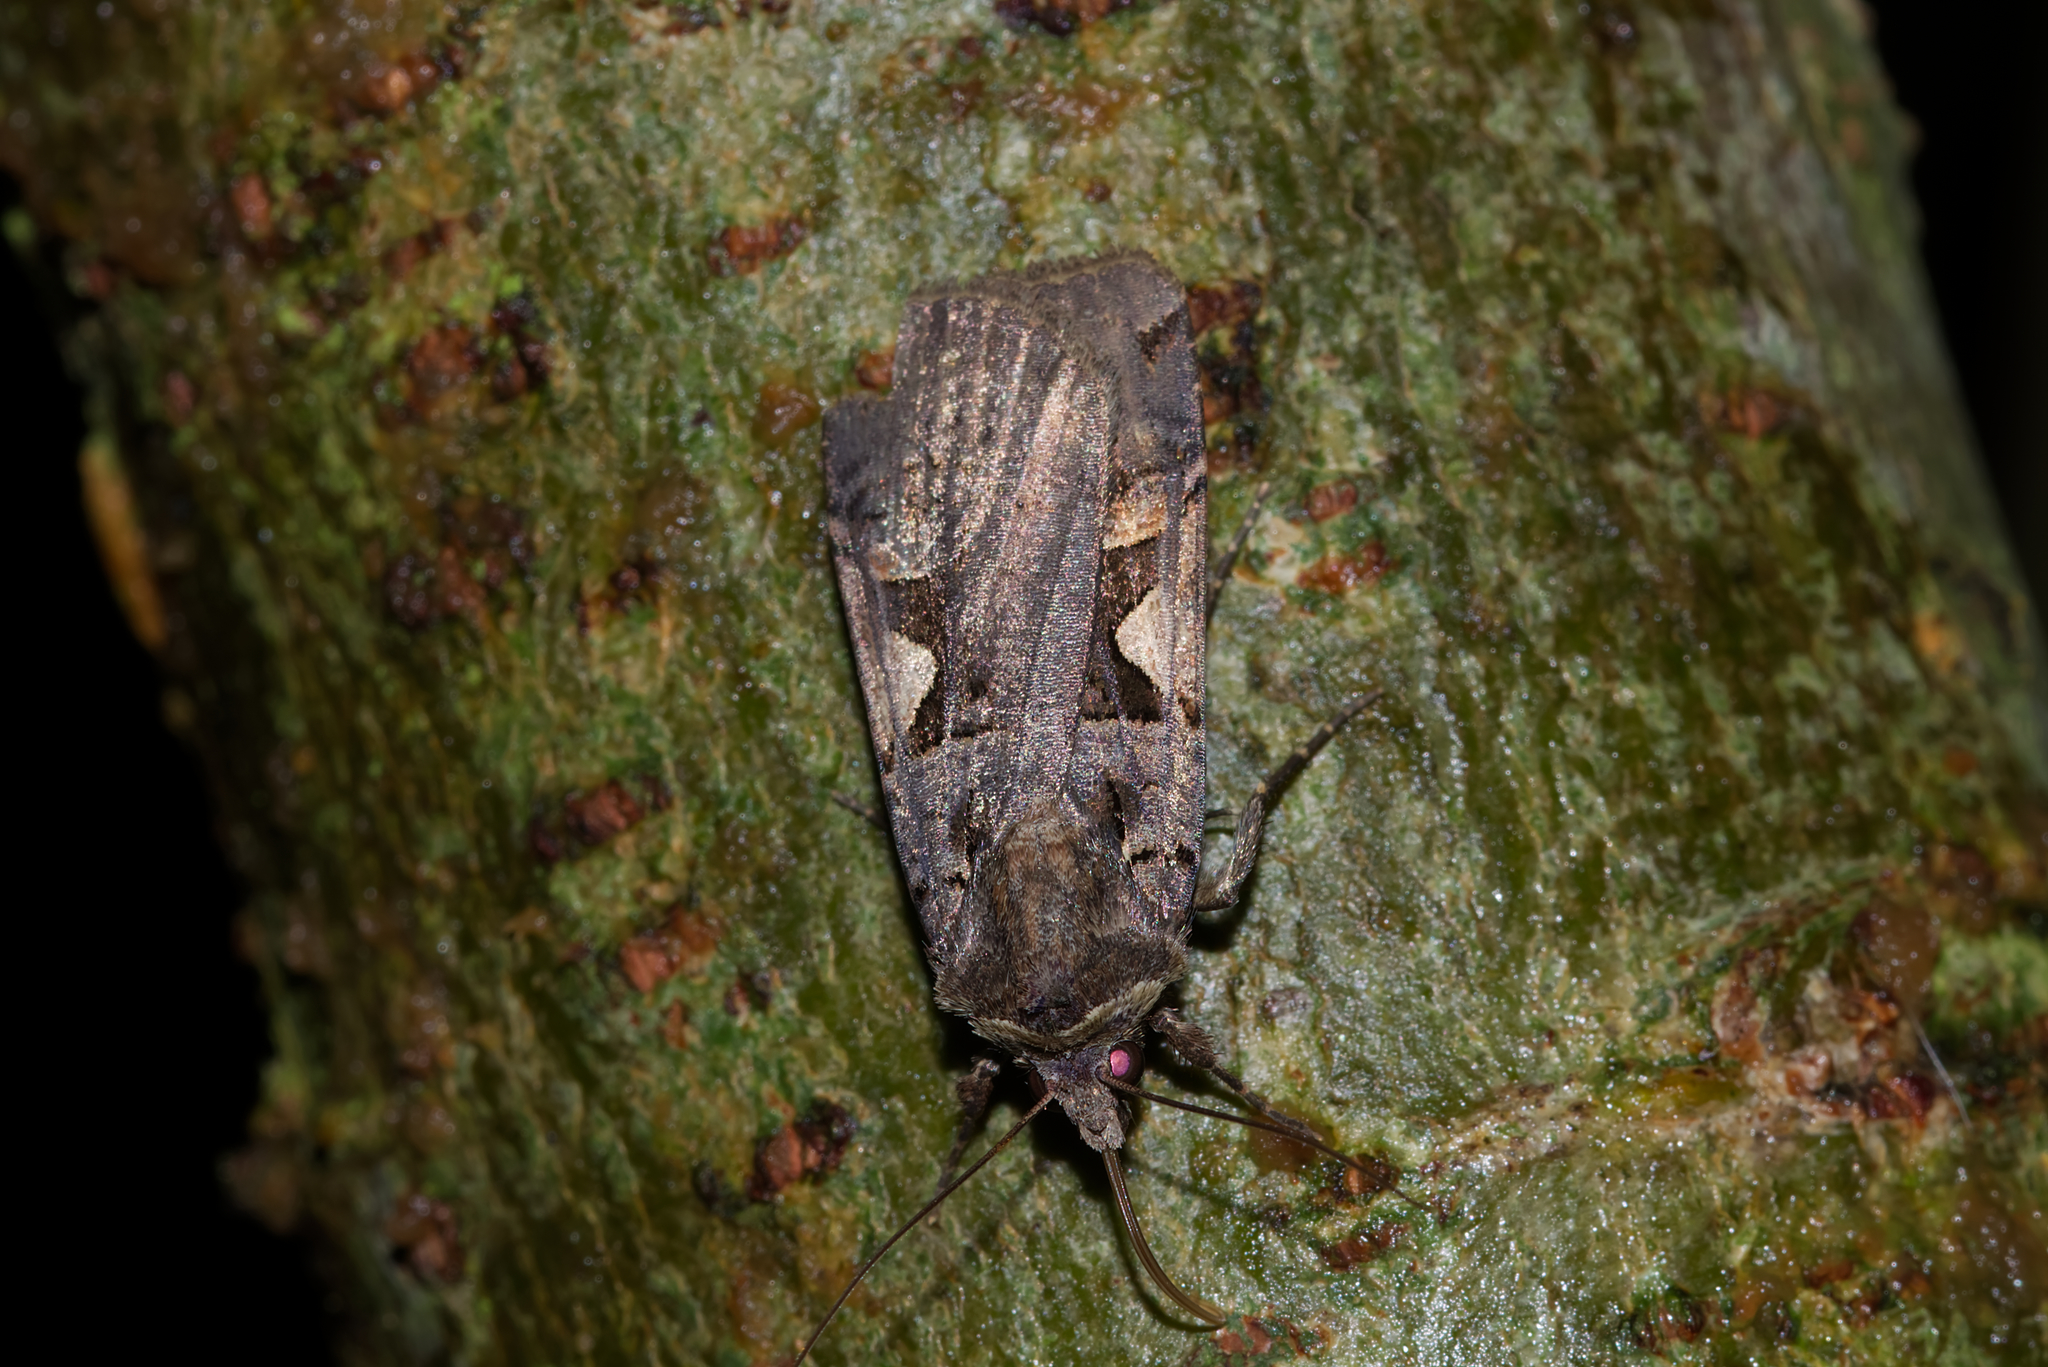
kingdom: Animalia
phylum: Arthropoda
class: Insecta
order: Lepidoptera
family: Noctuidae
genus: Xestia
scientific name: Xestia c-nigrum
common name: Setaceous hebrew character
